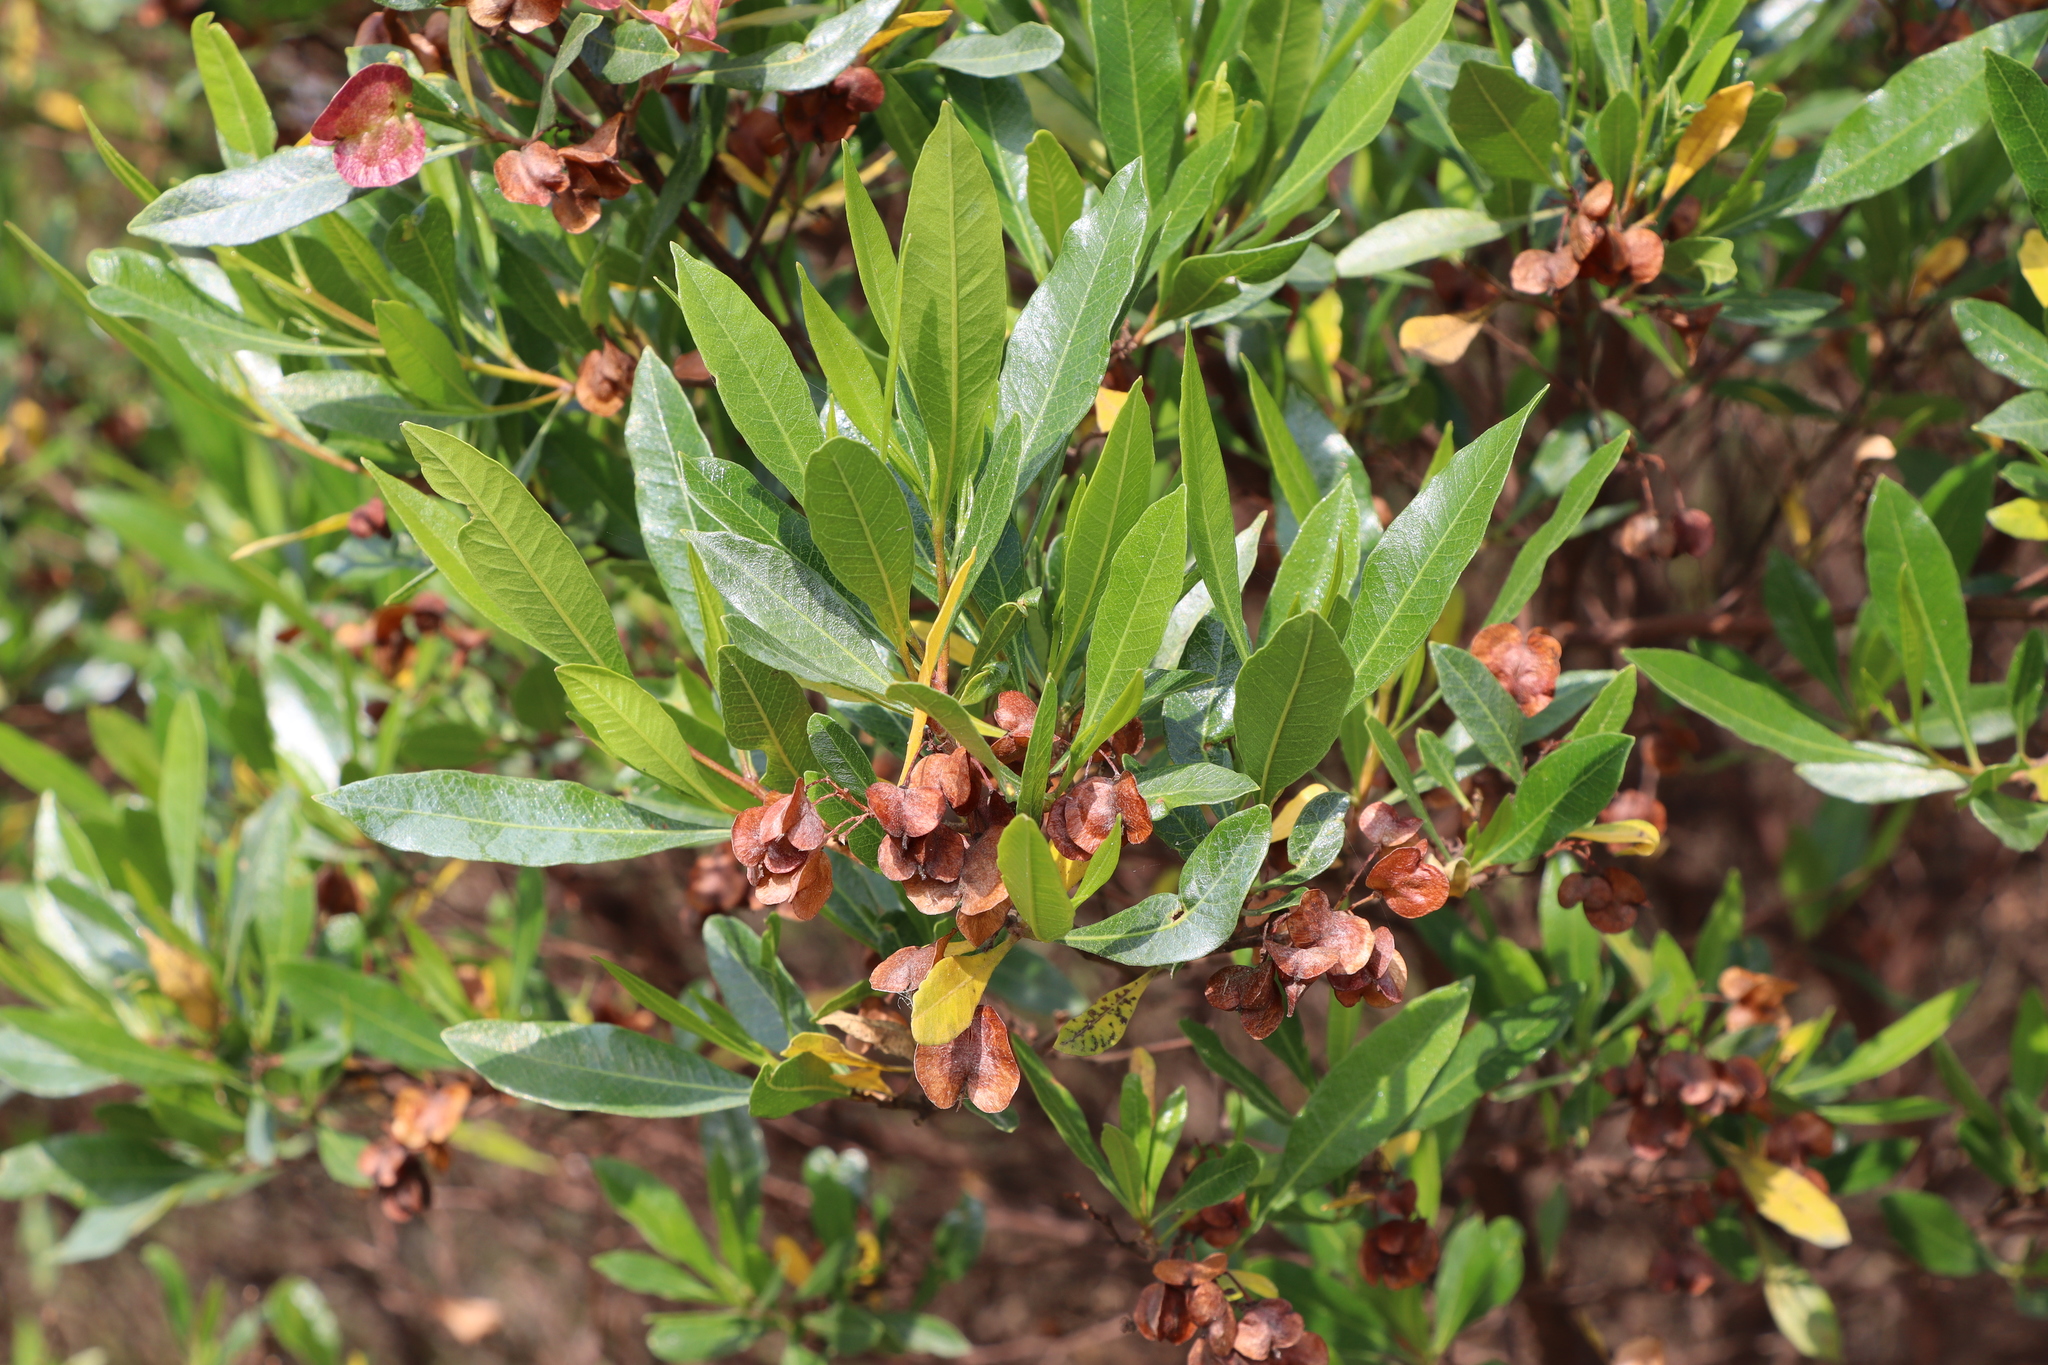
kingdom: Plantae
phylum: Tracheophyta
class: Magnoliopsida
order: Sapindales
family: Sapindaceae
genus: Dodonaea
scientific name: Dodonaea viscosa
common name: Hopbush
